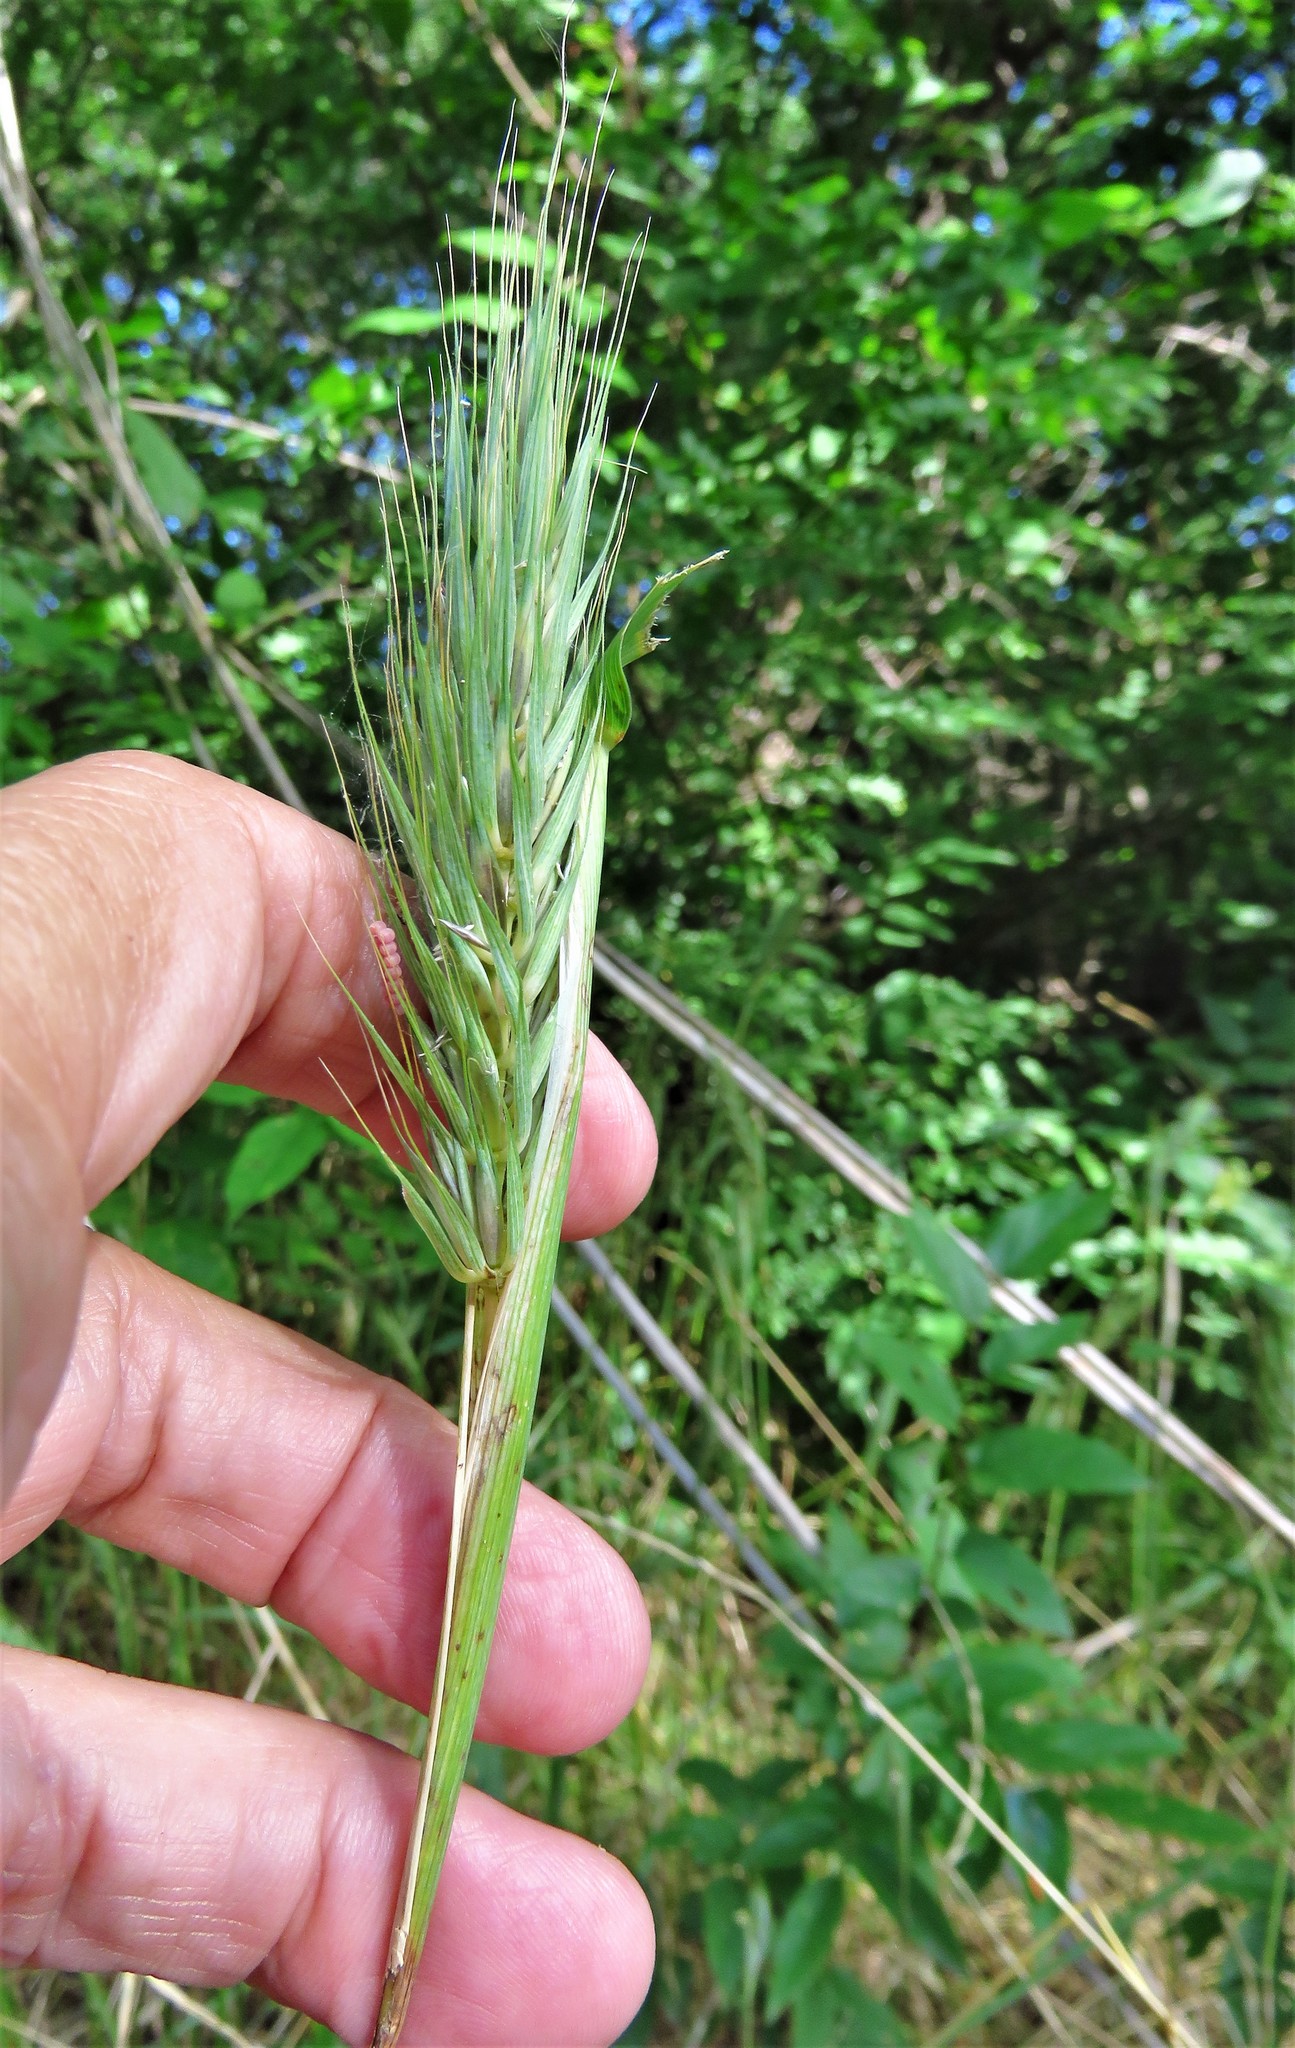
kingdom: Plantae
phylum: Tracheophyta
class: Liliopsida
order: Poales
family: Poaceae
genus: Elymus
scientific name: Elymus virginicus
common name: Common eastern wildrye
